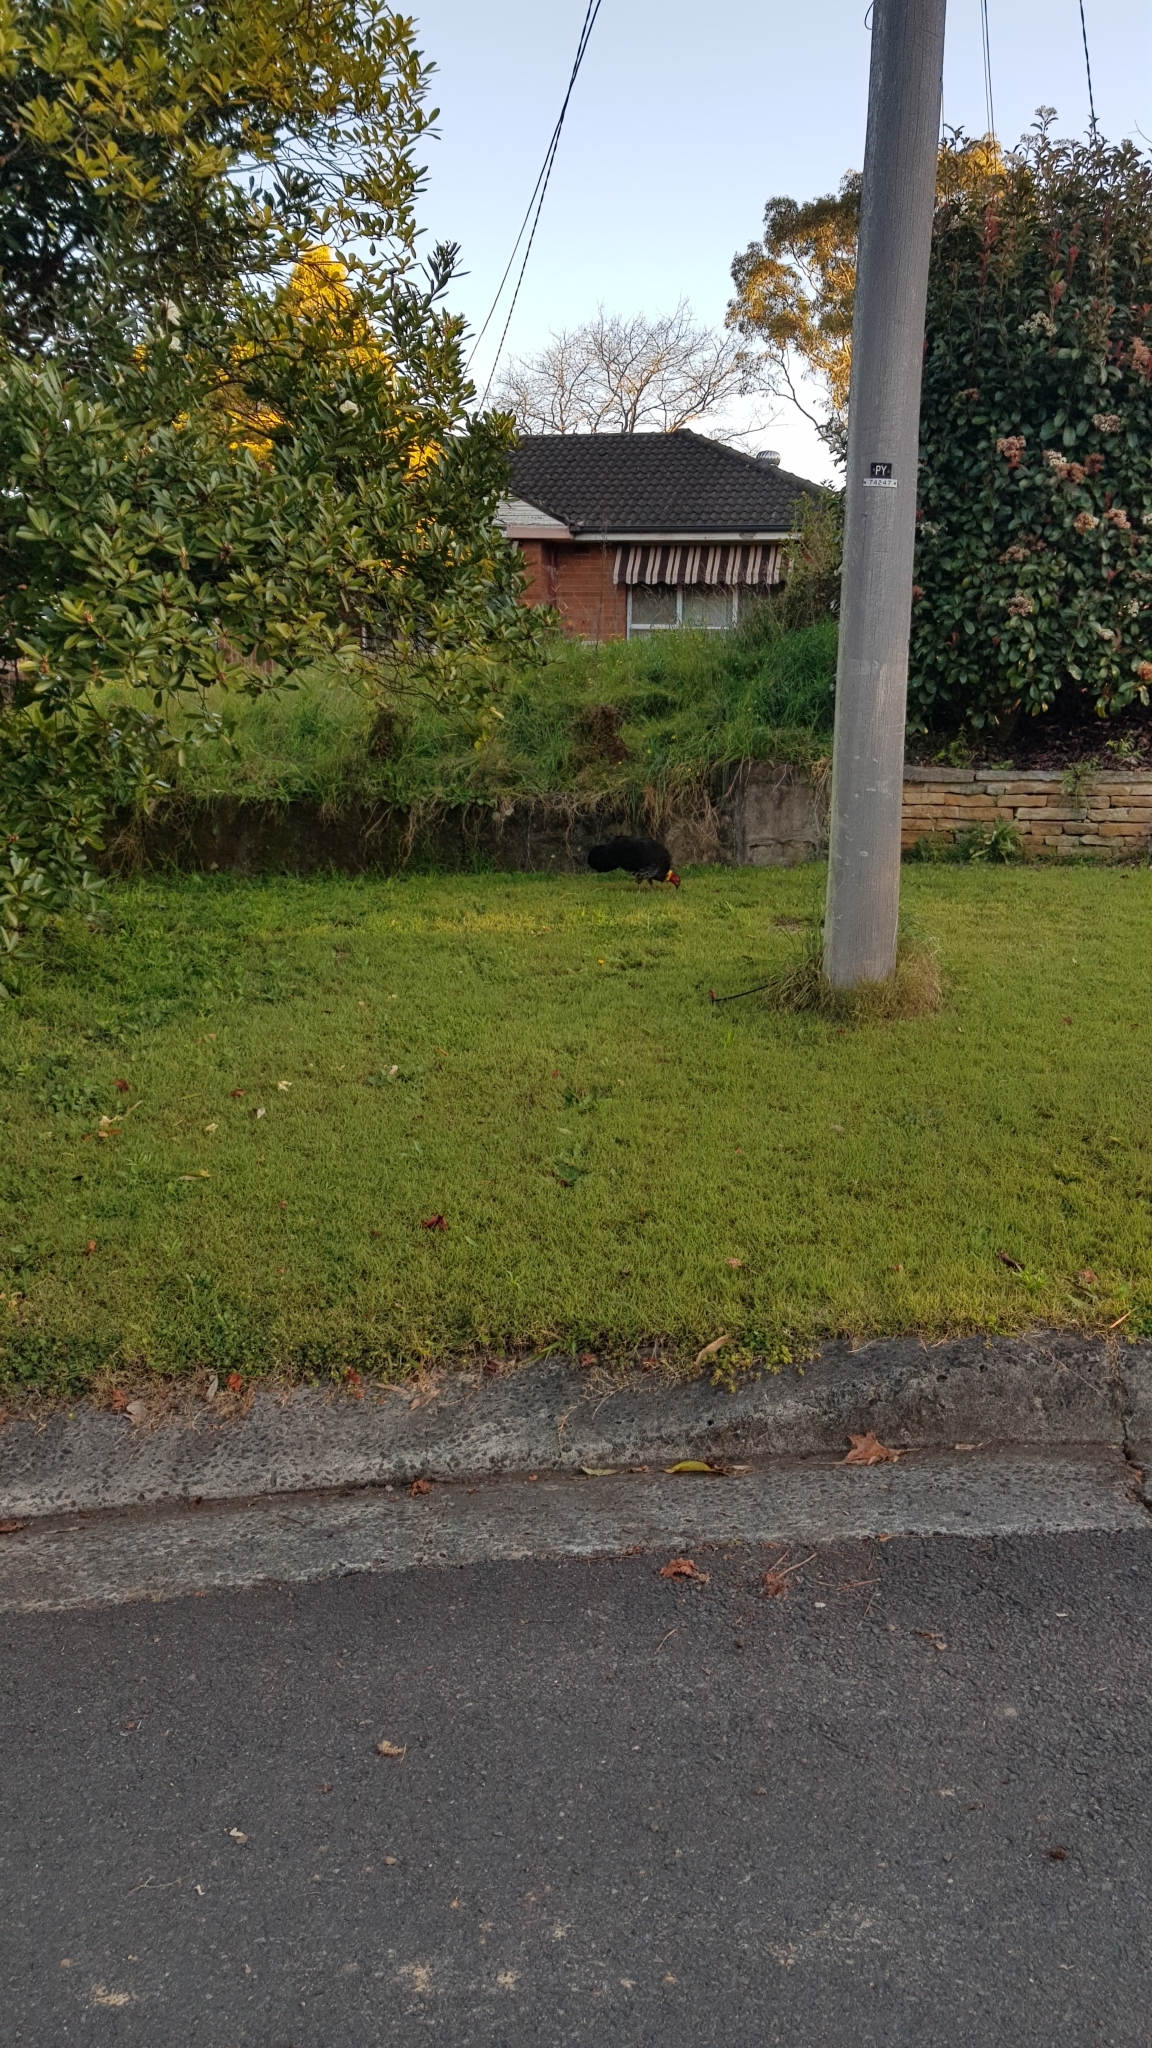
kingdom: Animalia
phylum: Chordata
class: Aves
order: Galliformes
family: Megapodiidae
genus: Alectura
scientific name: Alectura lathami
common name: Australian brushturkey
